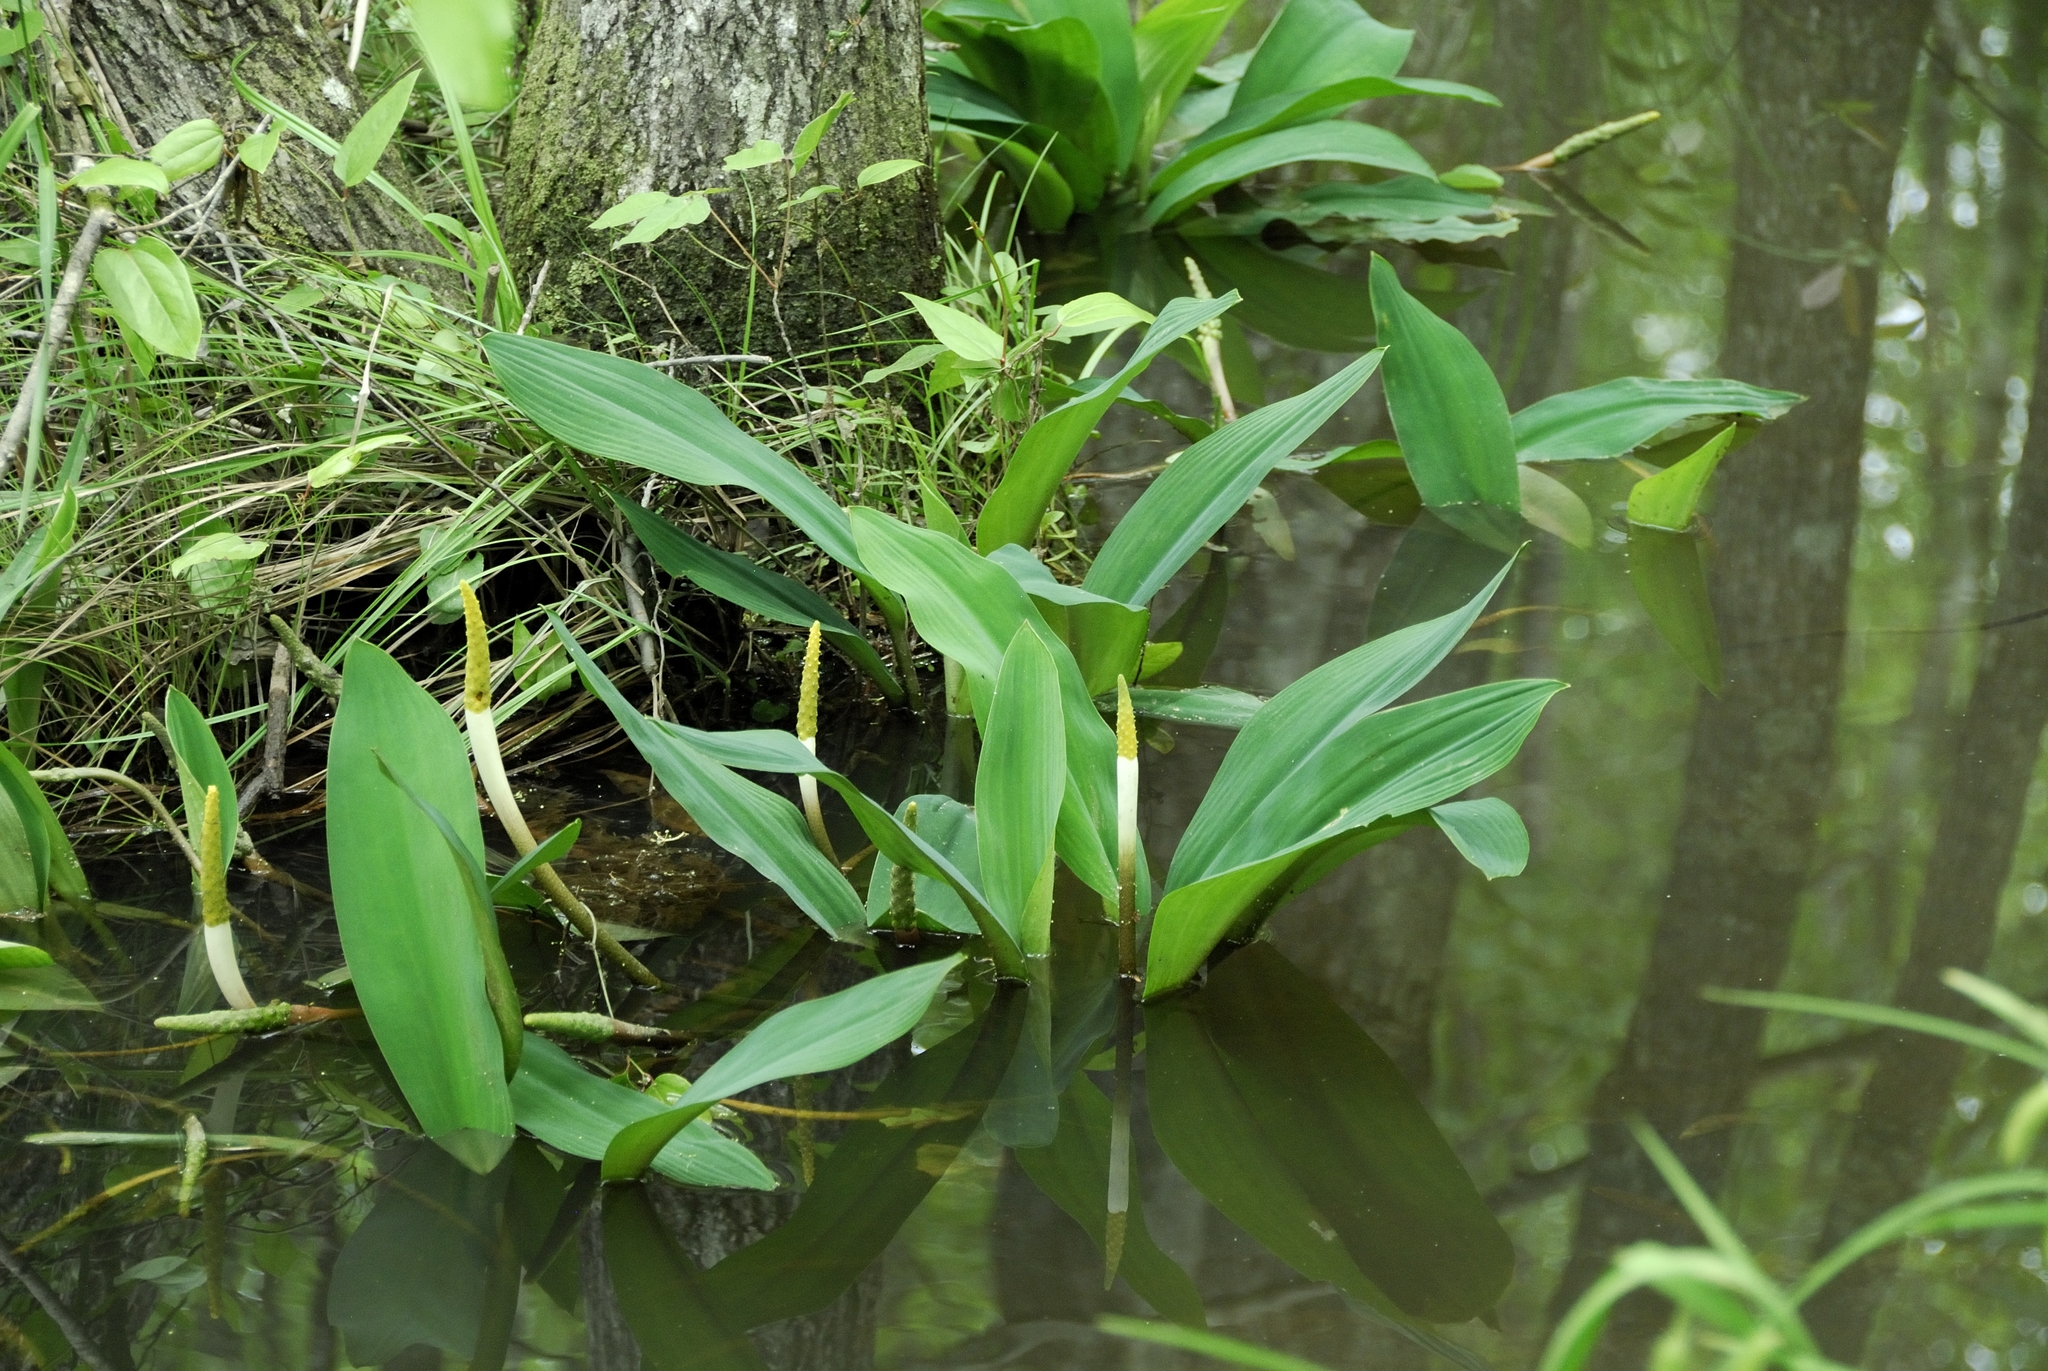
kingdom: Plantae
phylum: Tracheophyta
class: Liliopsida
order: Alismatales
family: Araceae
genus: Orontium
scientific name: Orontium aquaticum
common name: Golden-club
